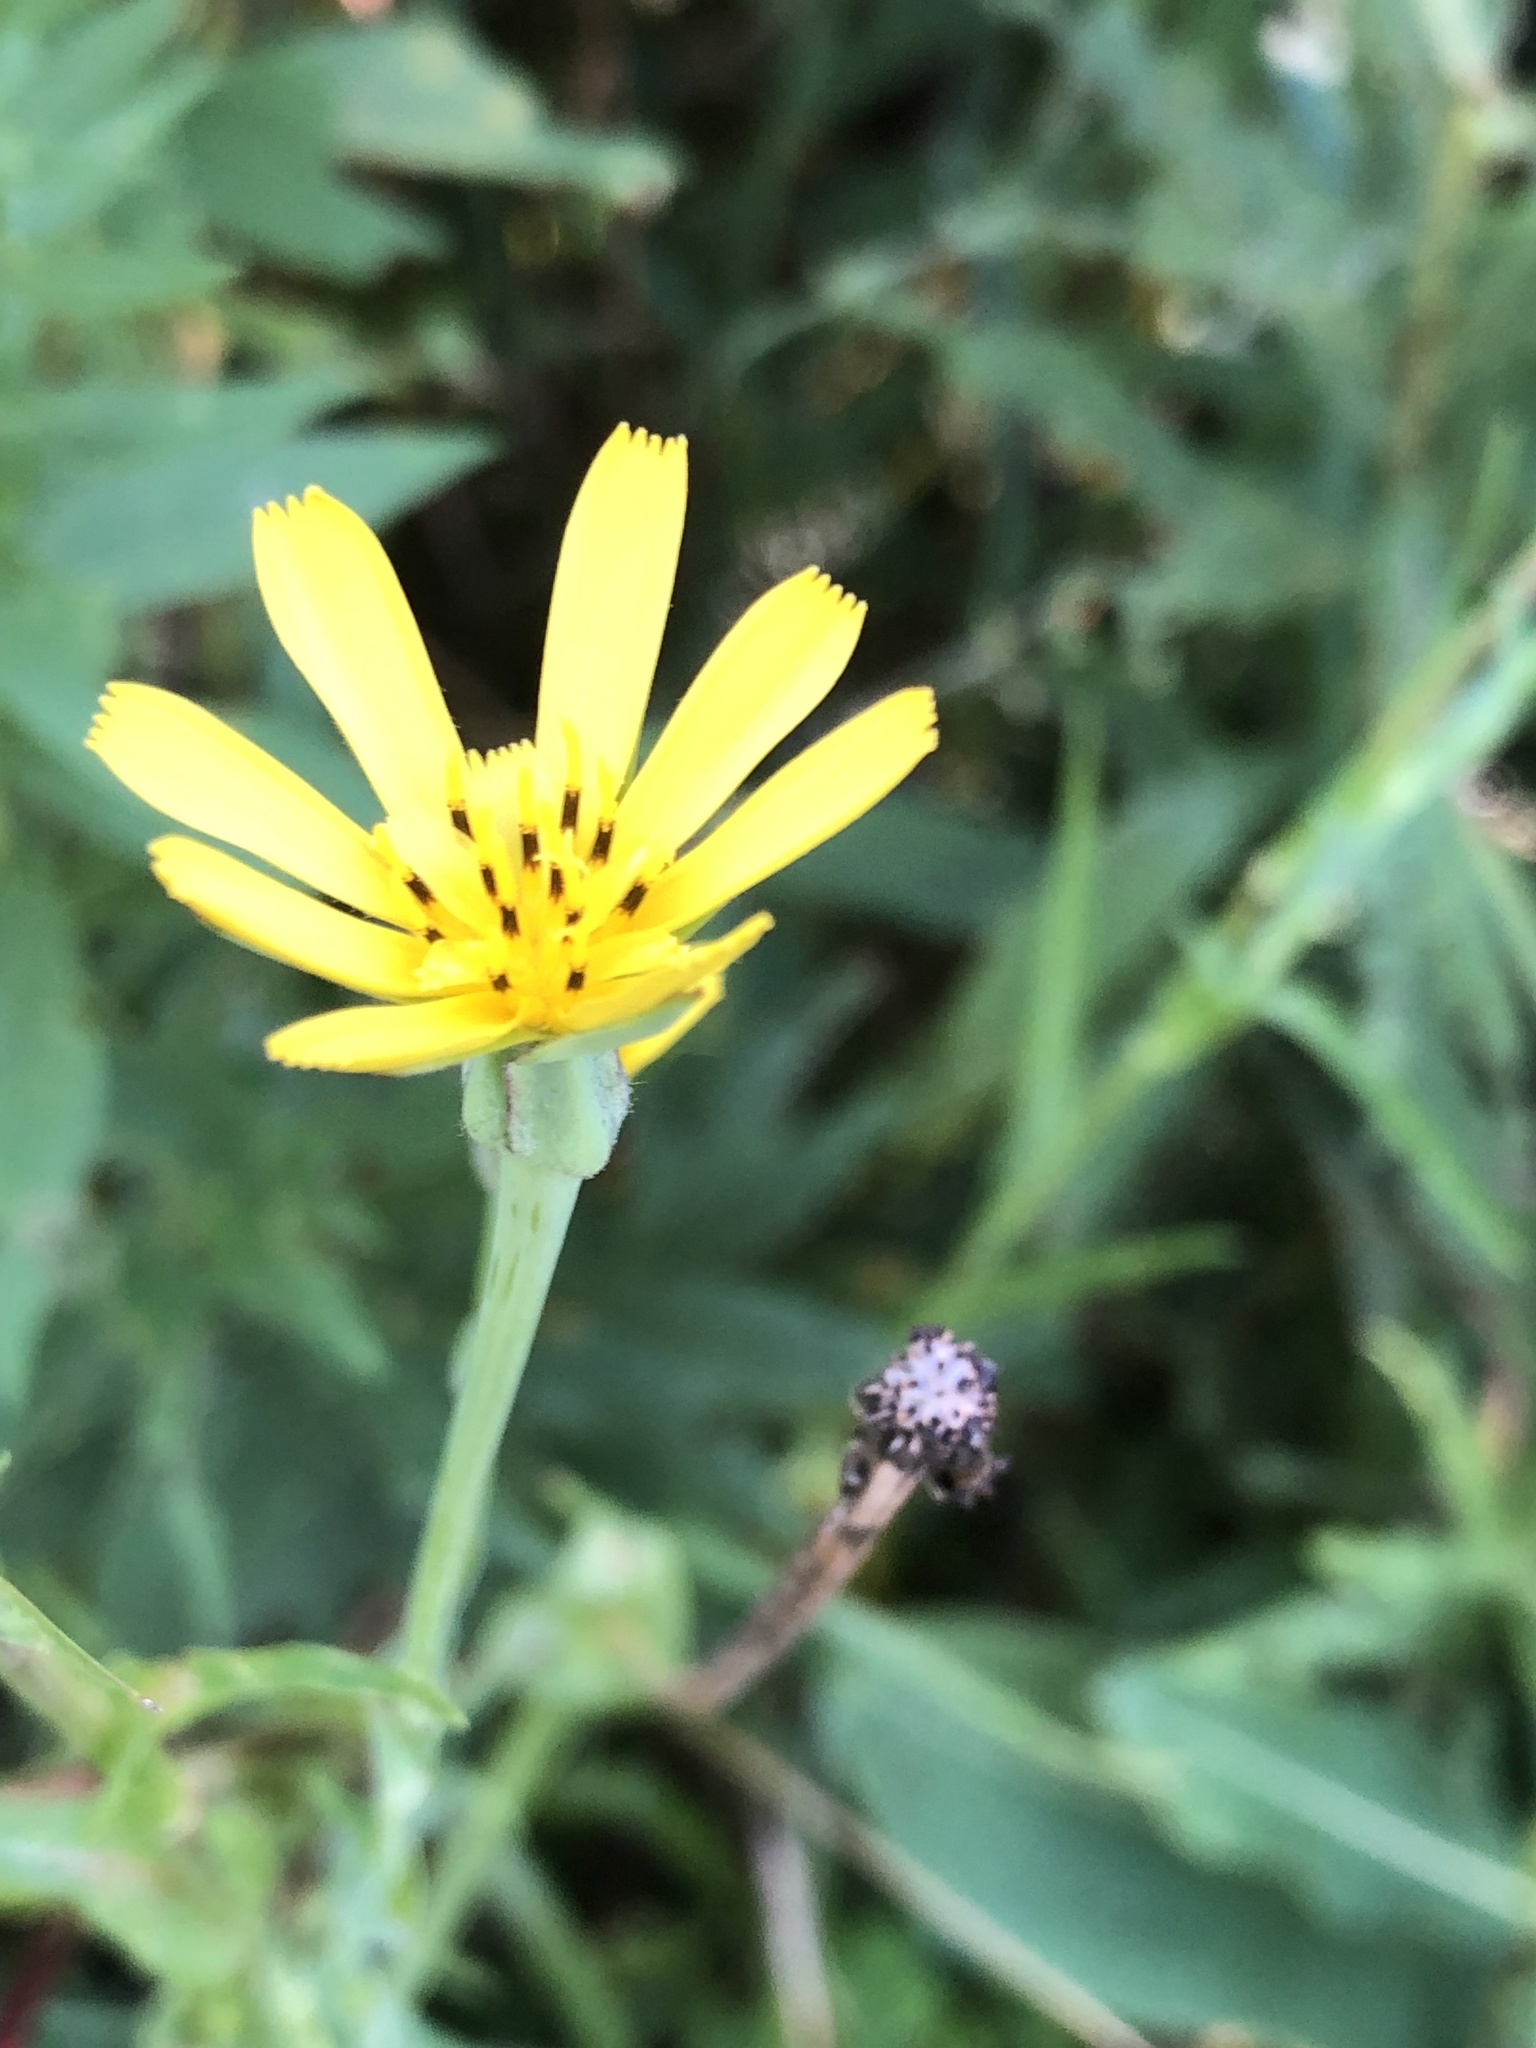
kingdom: Plantae
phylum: Tracheophyta
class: Magnoliopsida
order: Asterales
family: Asteraceae
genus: Tragopogon
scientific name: Tragopogon pratensis
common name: Goat's-beard
